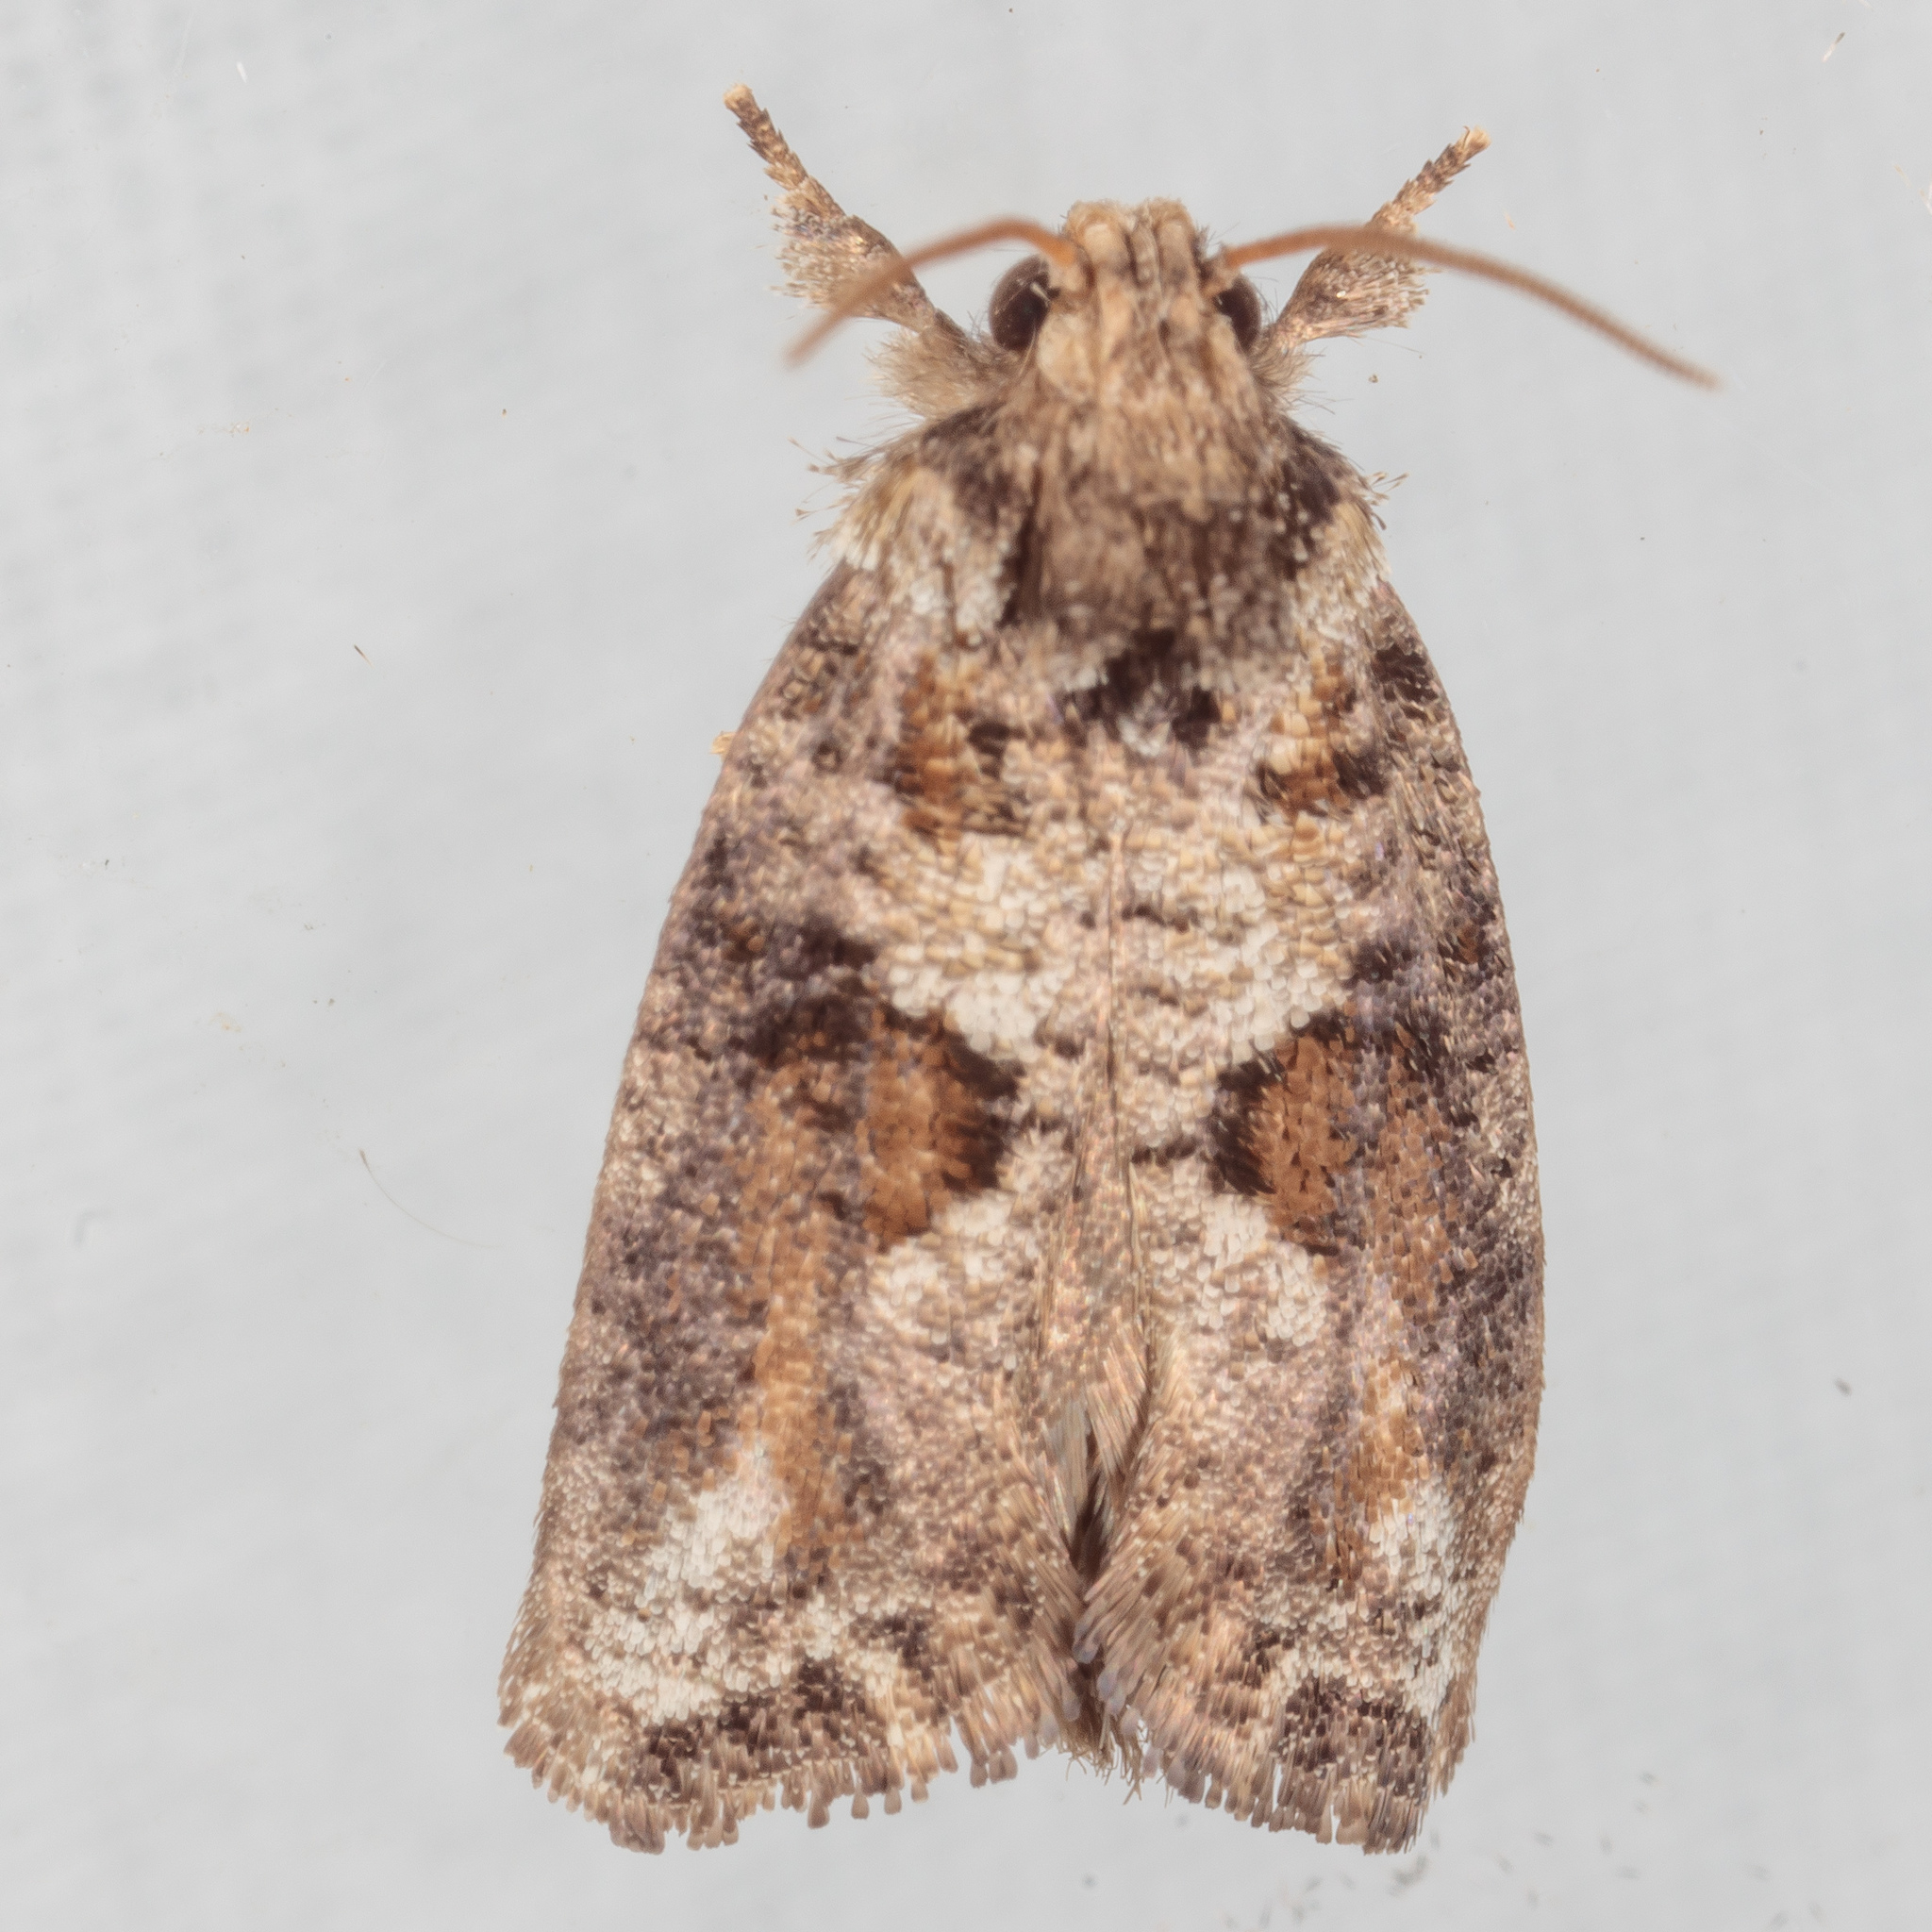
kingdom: Animalia
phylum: Arthropoda
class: Insecta
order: Lepidoptera
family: Tineidae
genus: Acrolophus
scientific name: Acrolophus piger
